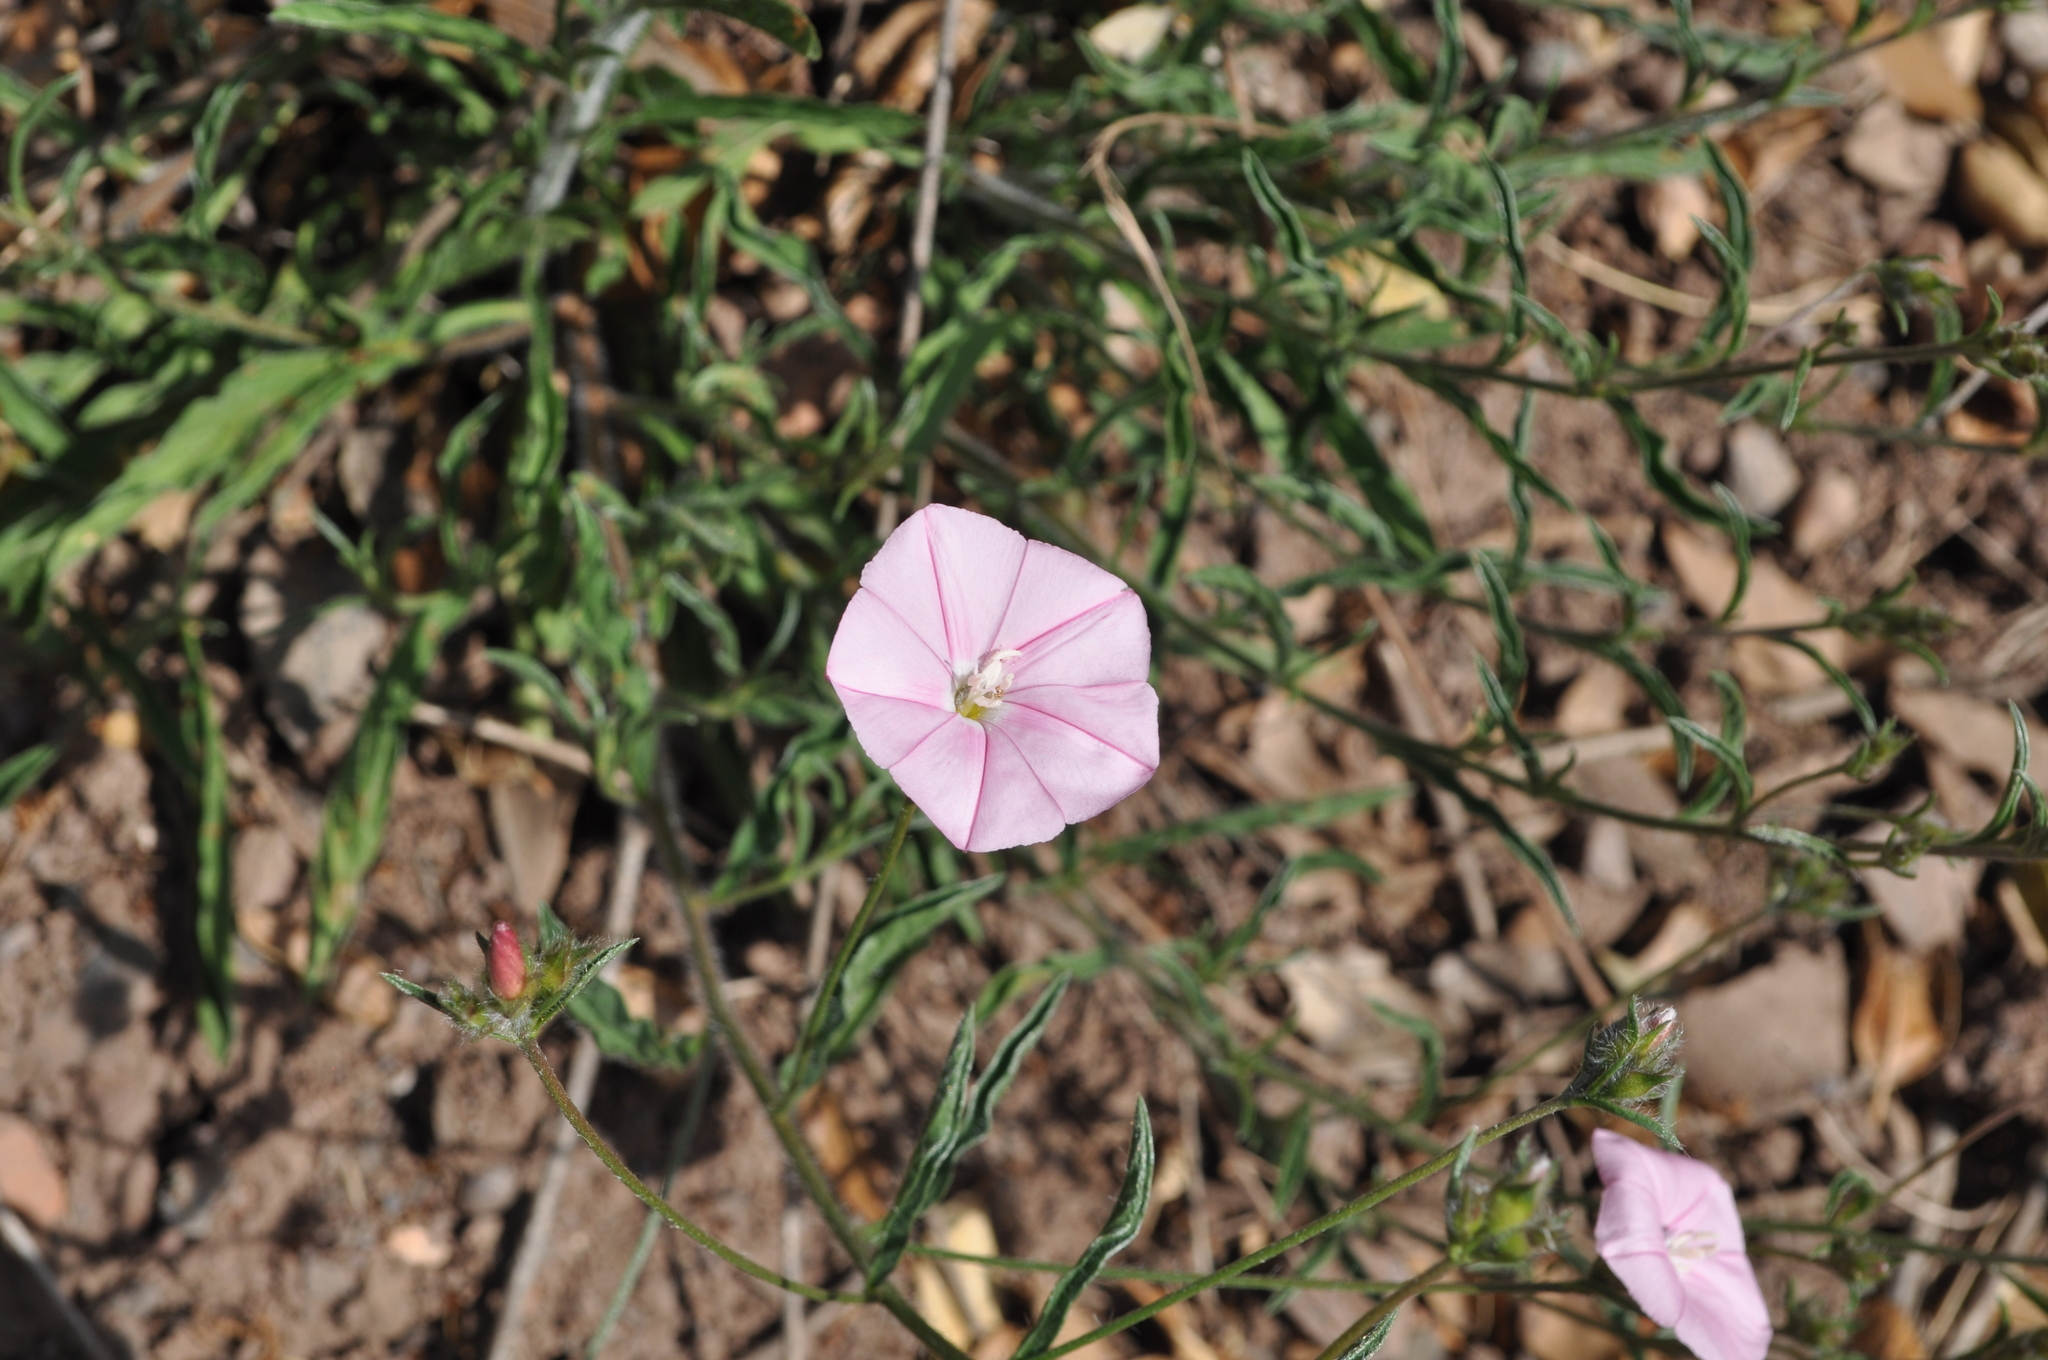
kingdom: Plantae
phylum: Tracheophyta
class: Magnoliopsida
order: Solanales
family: Convolvulaceae
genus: Convolvulus
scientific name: Convolvulus cantabrica
